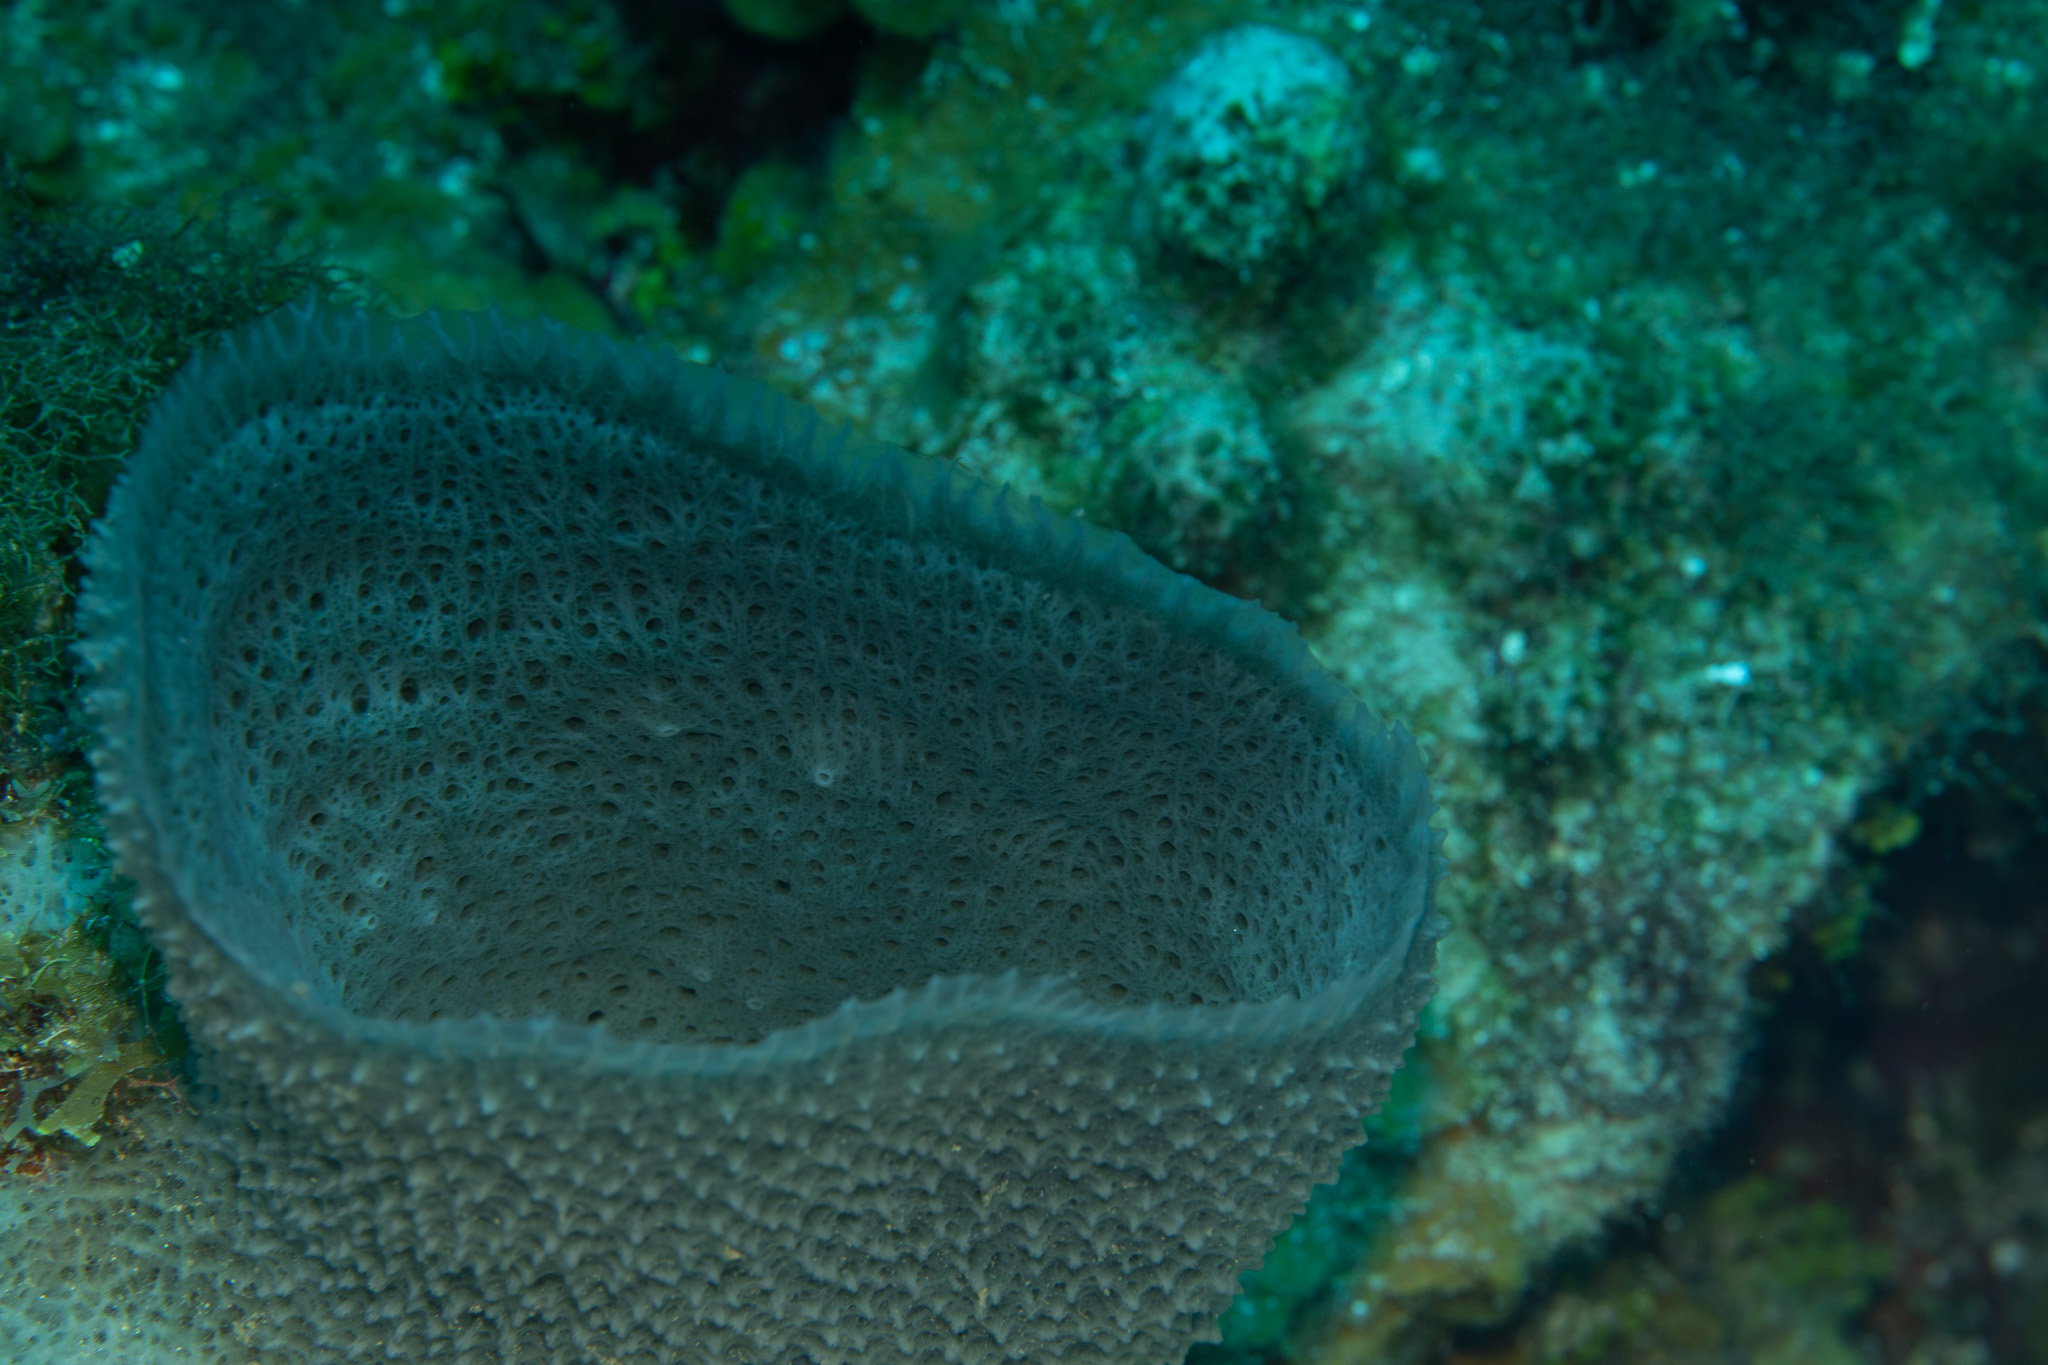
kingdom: Animalia
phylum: Porifera
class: Demospongiae
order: Haplosclerida
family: Niphatidae
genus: Niphates
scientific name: Niphates digitalis
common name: Pink vase sponge
